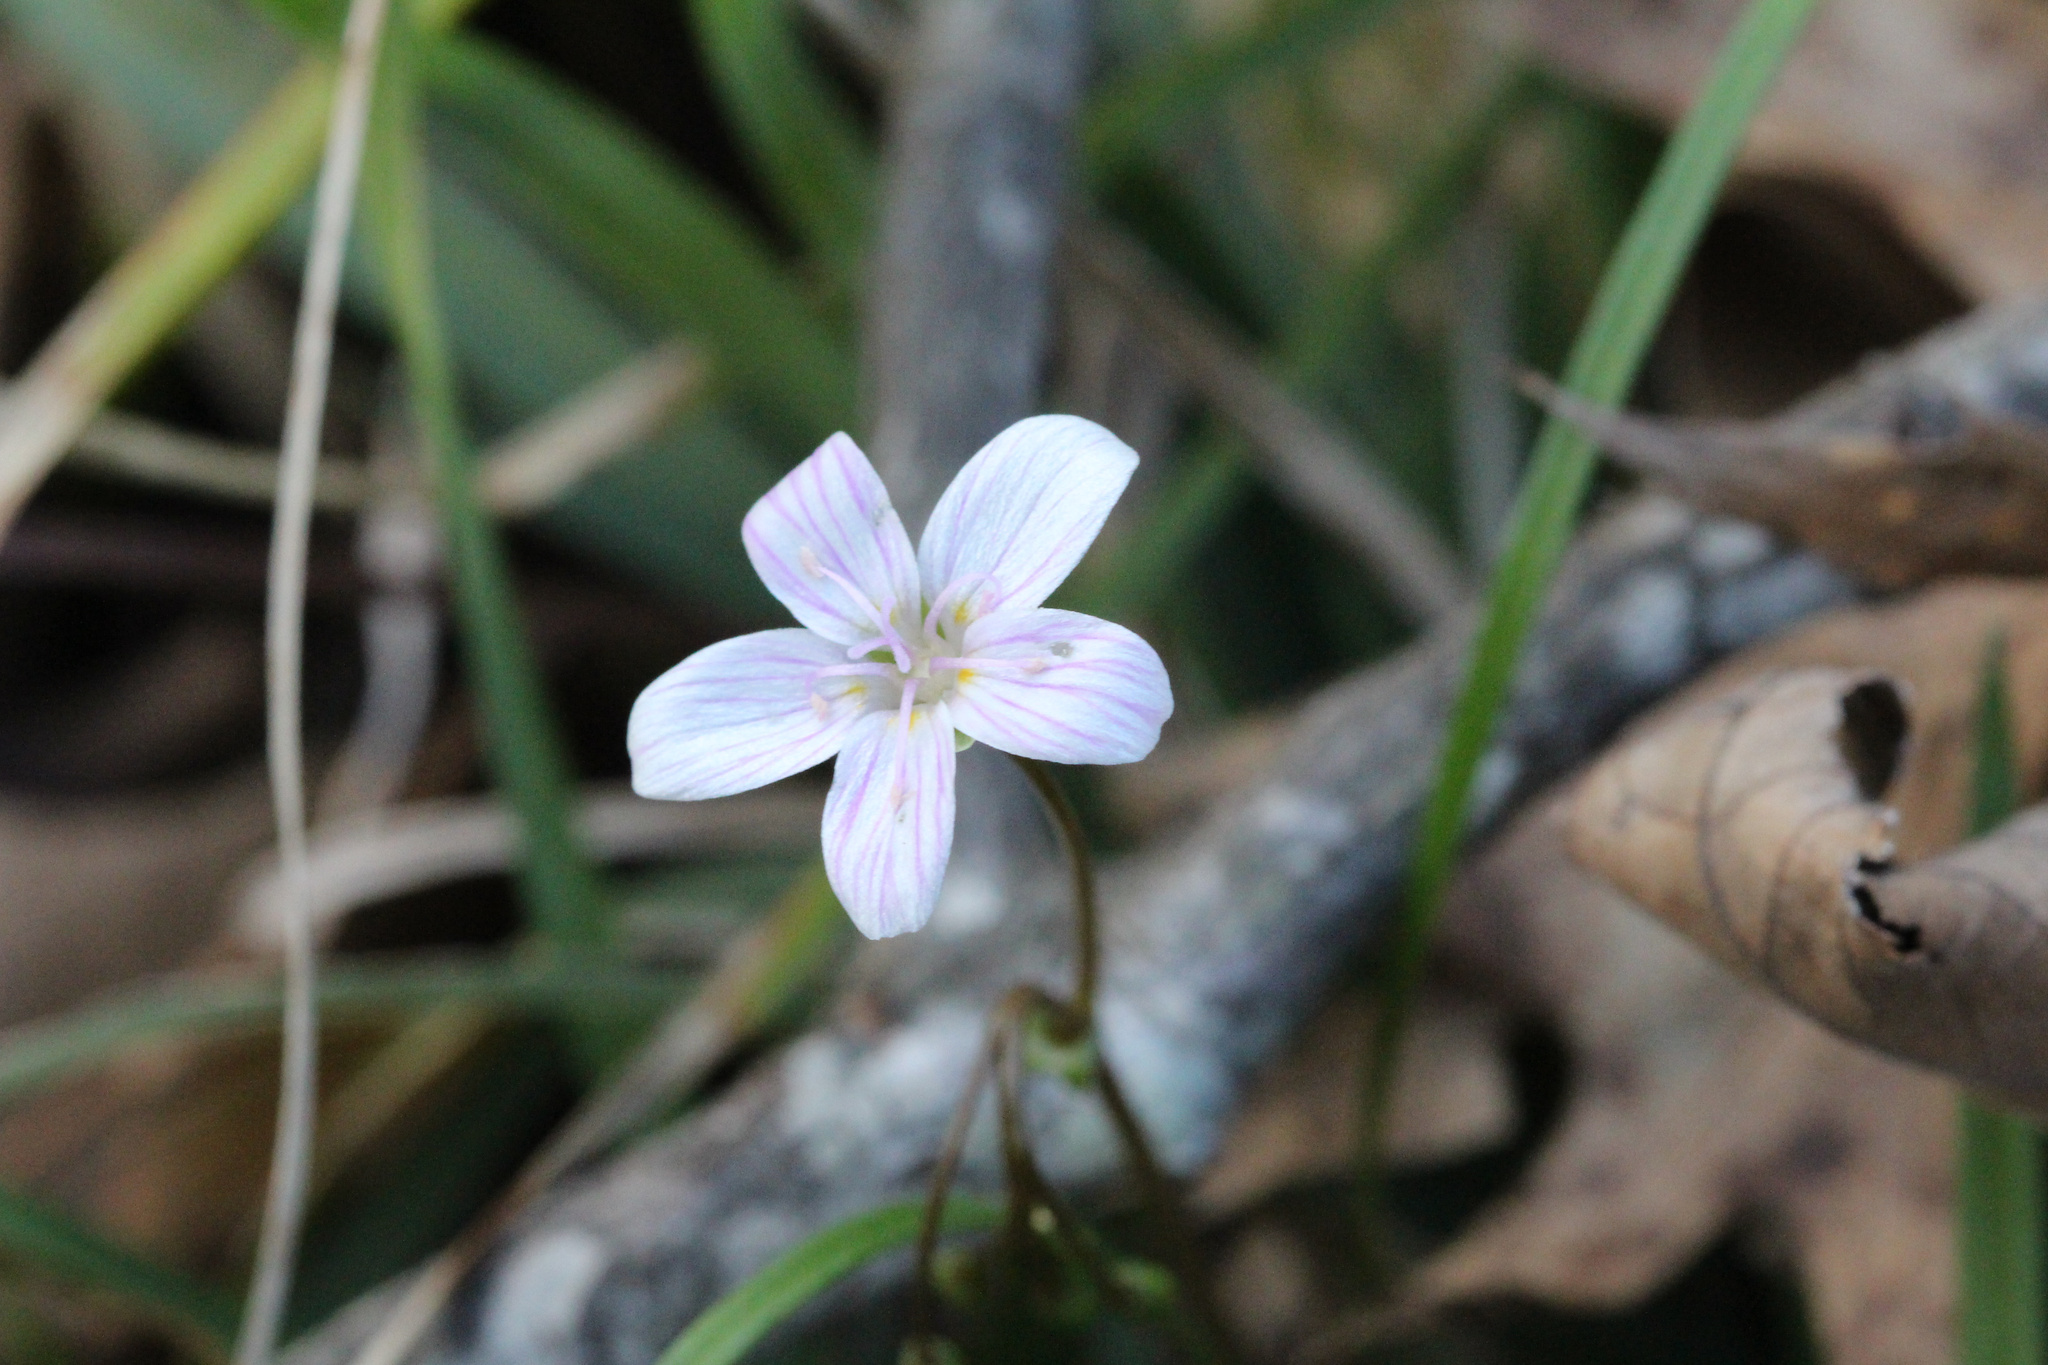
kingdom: Plantae
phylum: Tracheophyta
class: Magnoliopsida
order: Caryophyllales
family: Montiaceae
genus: Claytonia
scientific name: Claytonia virginica
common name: Virginia springbeauty
